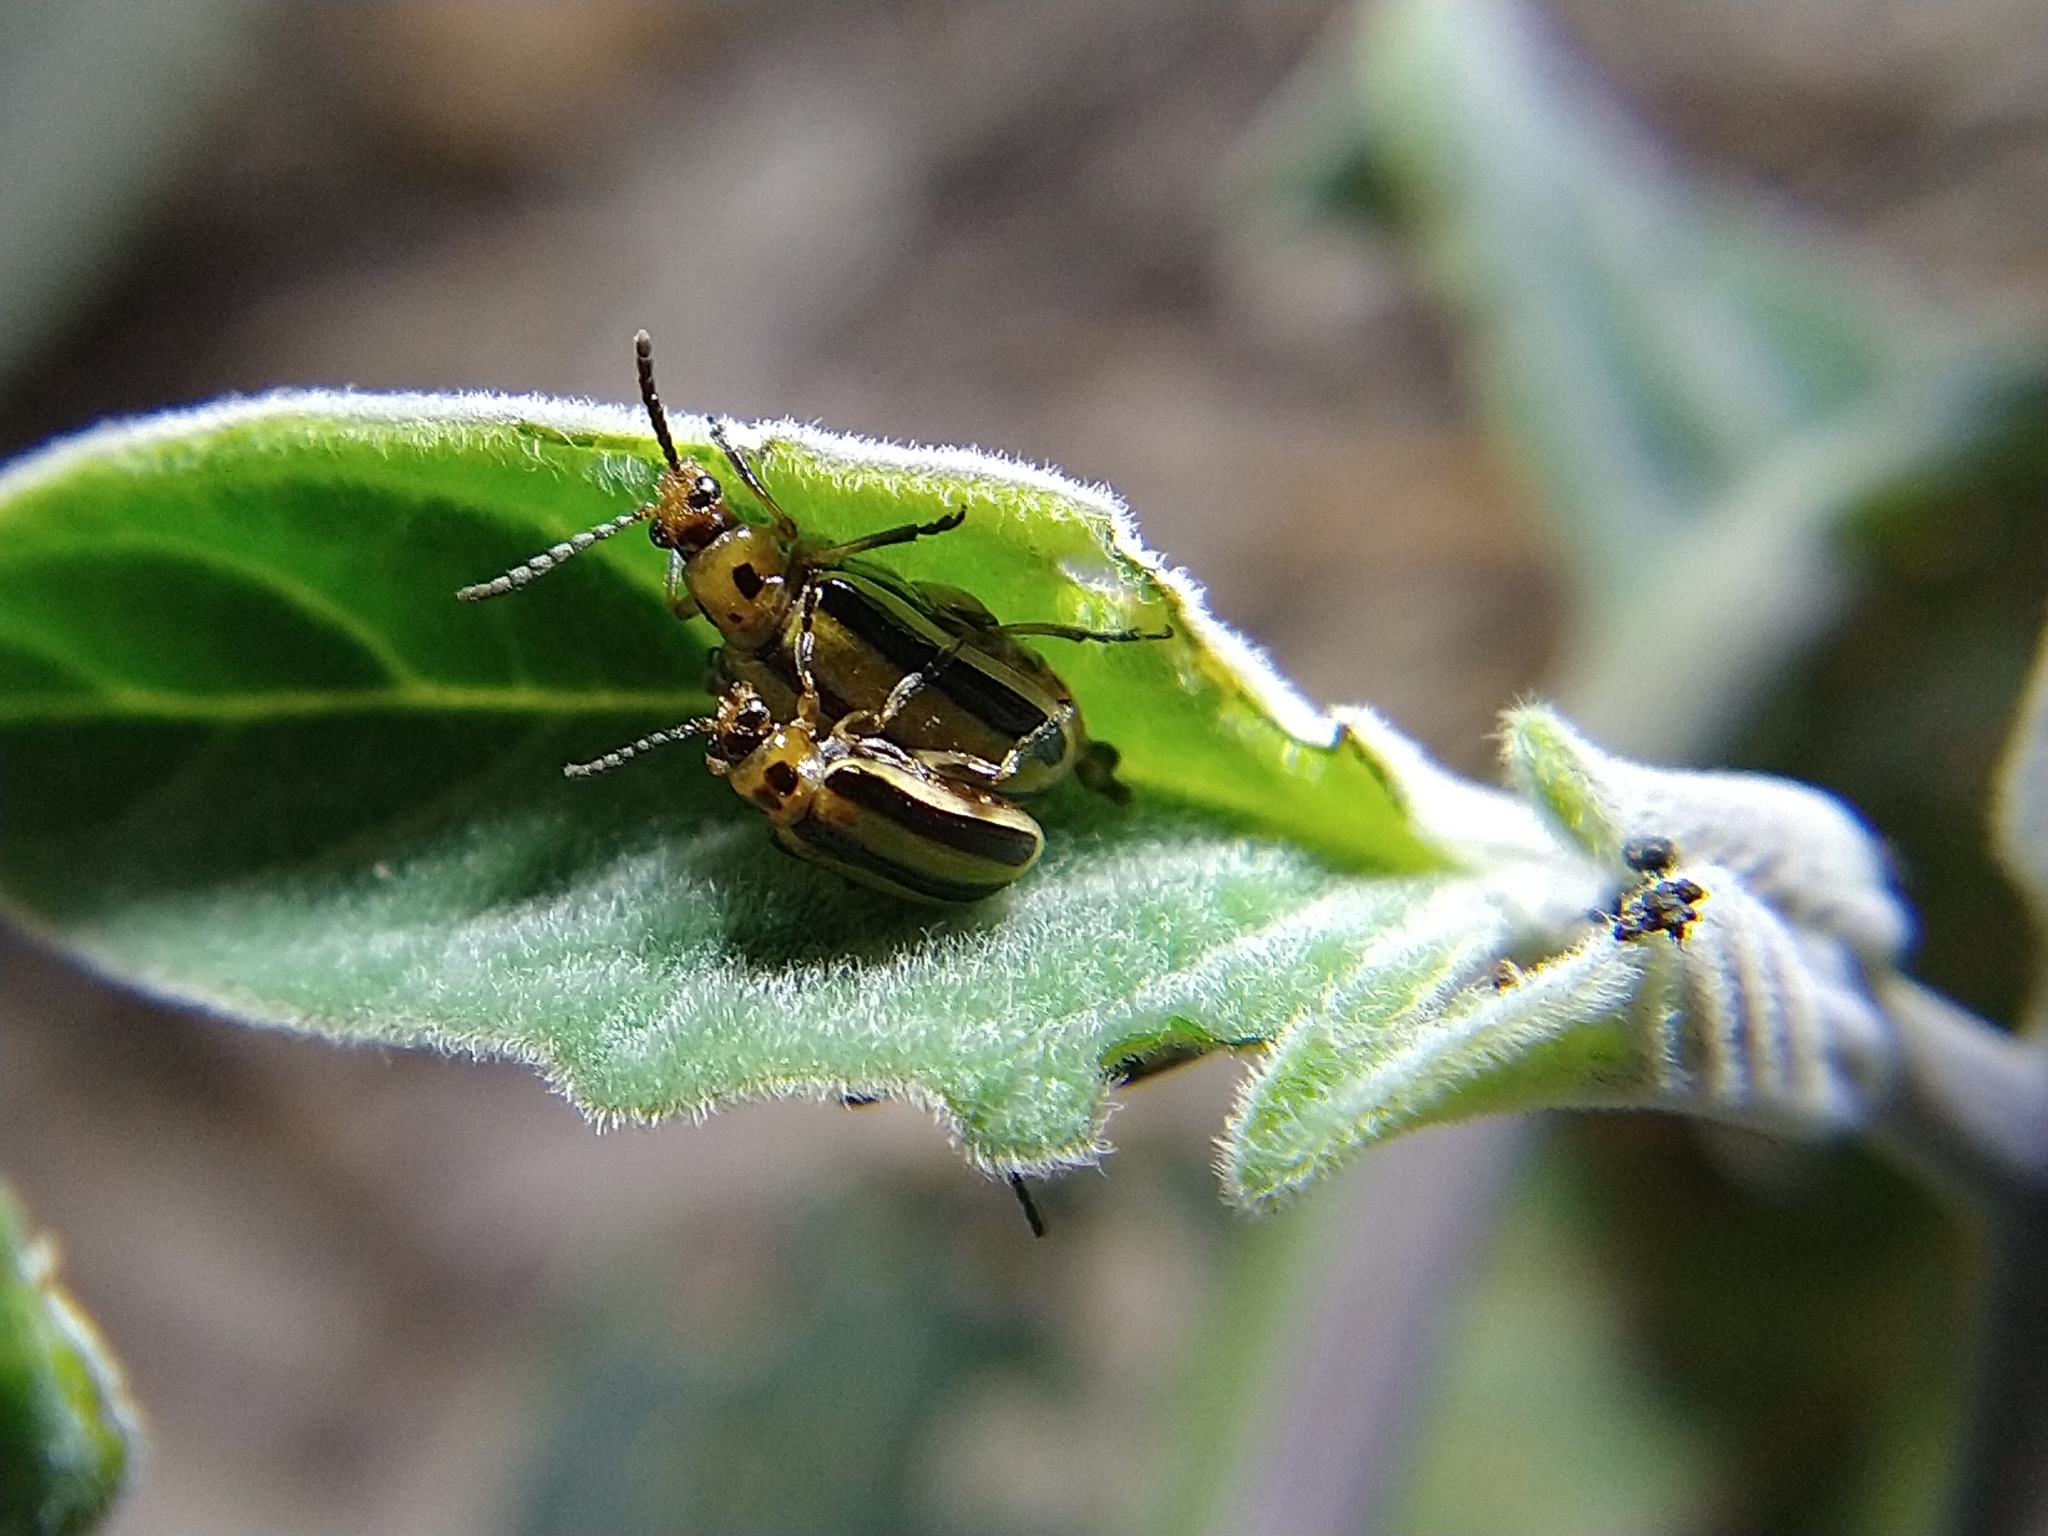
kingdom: Animalia
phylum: Arthropoda
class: Insecta
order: Coleoptera
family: Chrysomelidae
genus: Lema
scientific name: Lema daturaphila
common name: Leaf beetle
